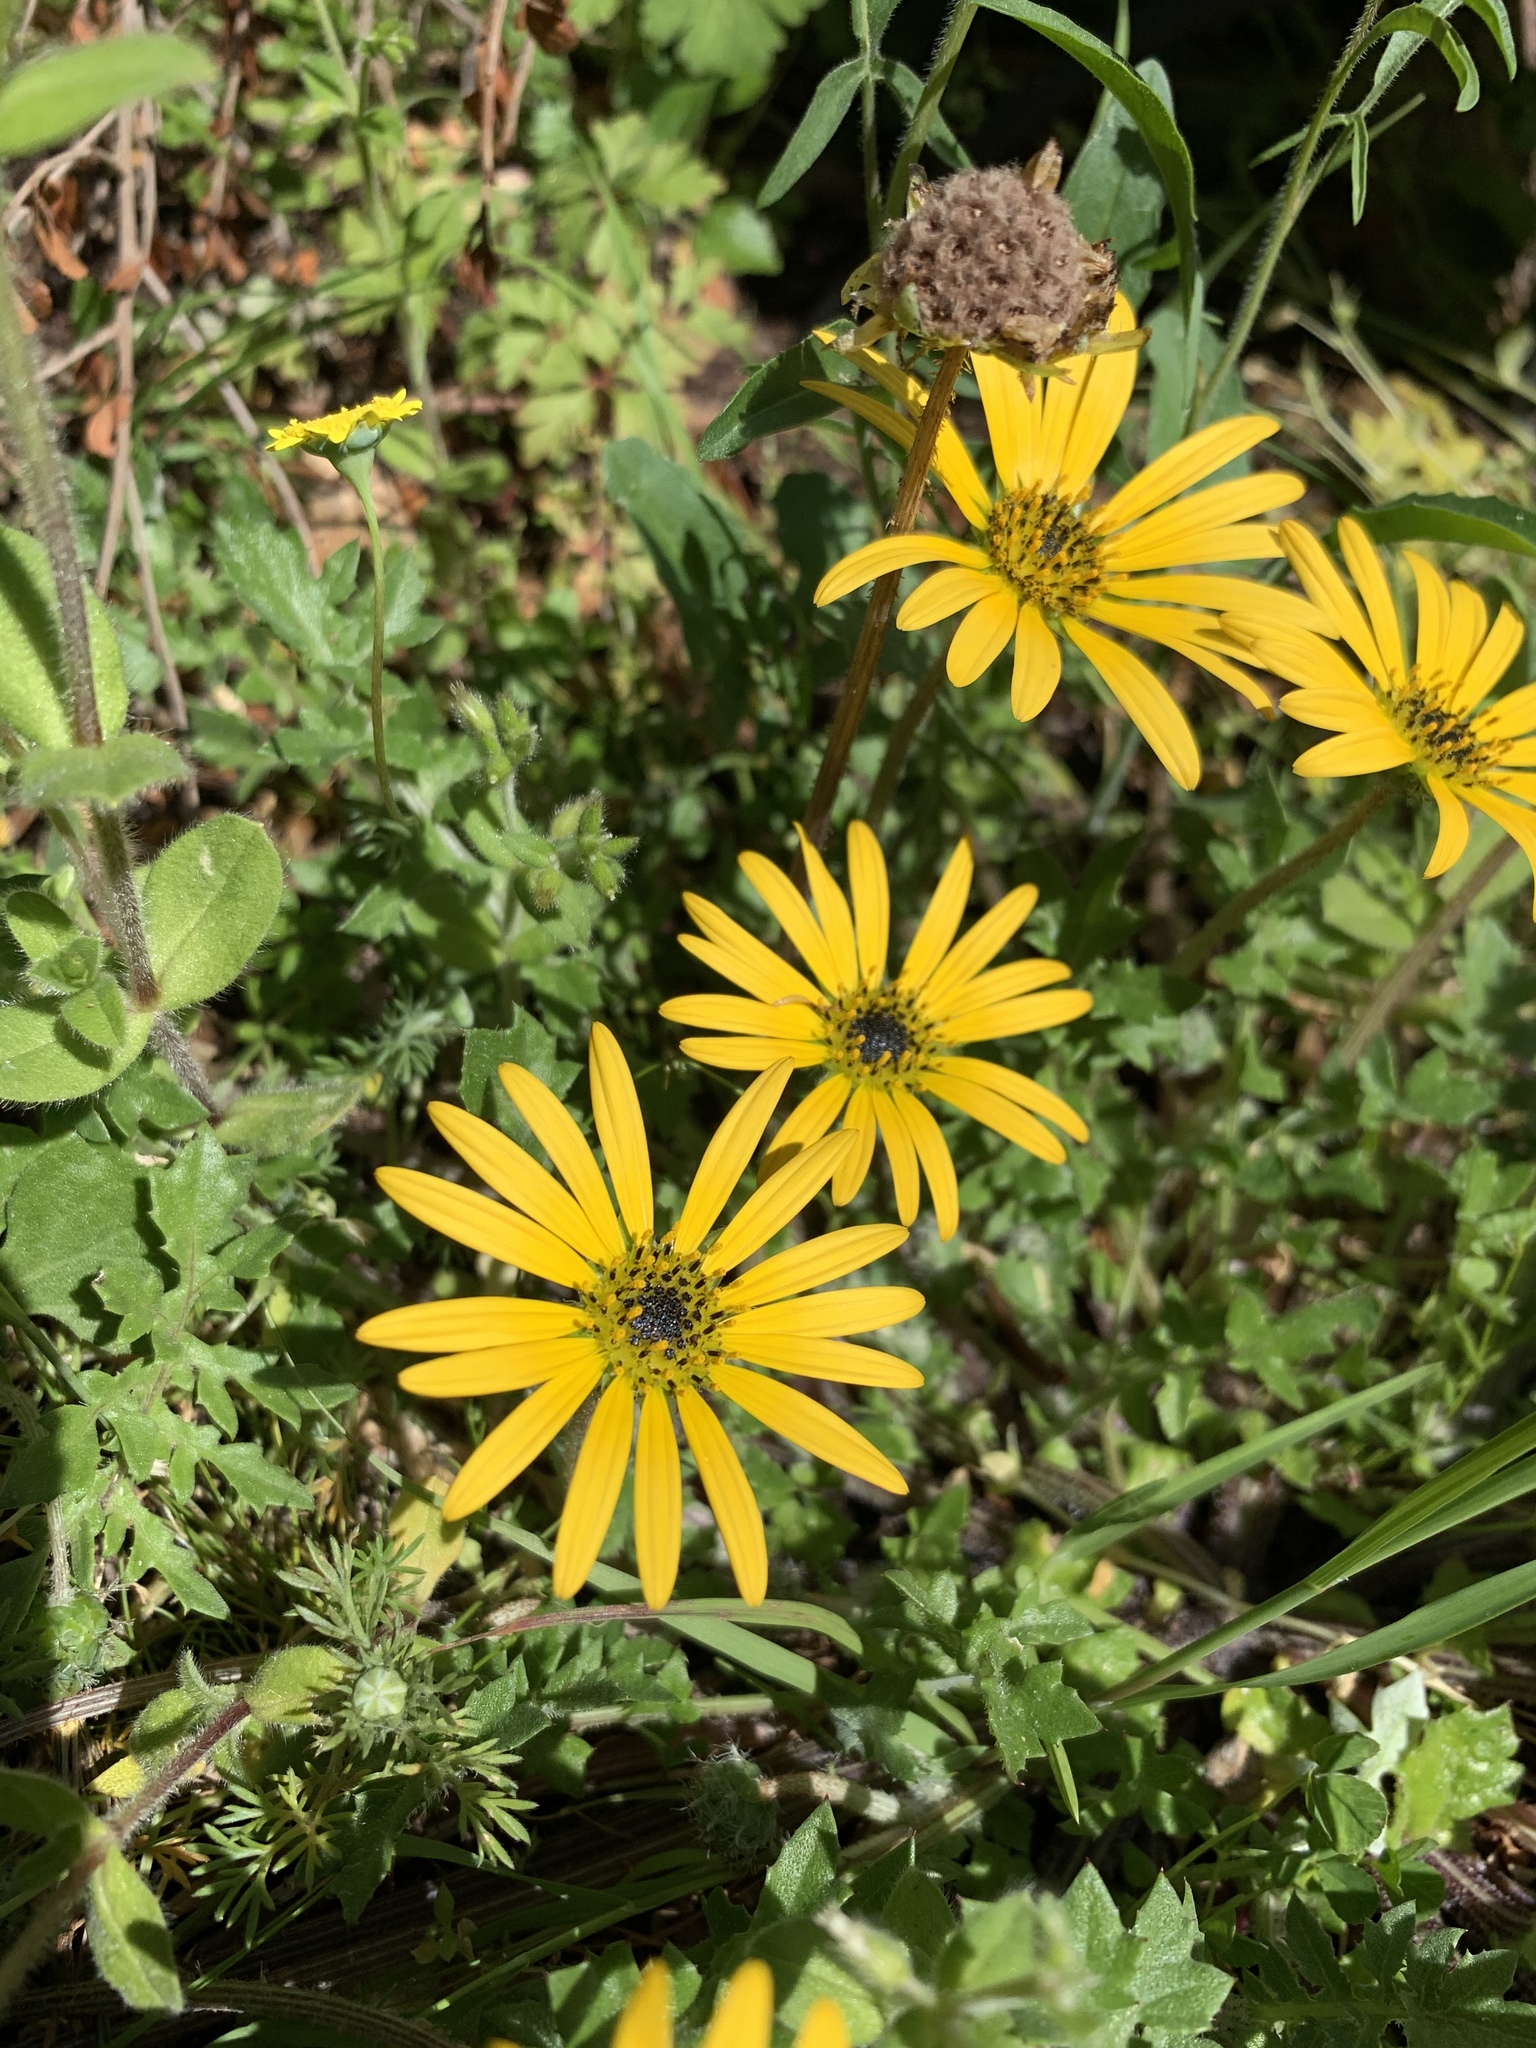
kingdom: Plantae
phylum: Tracheophyta
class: Magnoliopsida
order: Asterales
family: Asteraceae
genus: Arctotheca
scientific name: Arctotheca calendula
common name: Capeweed
